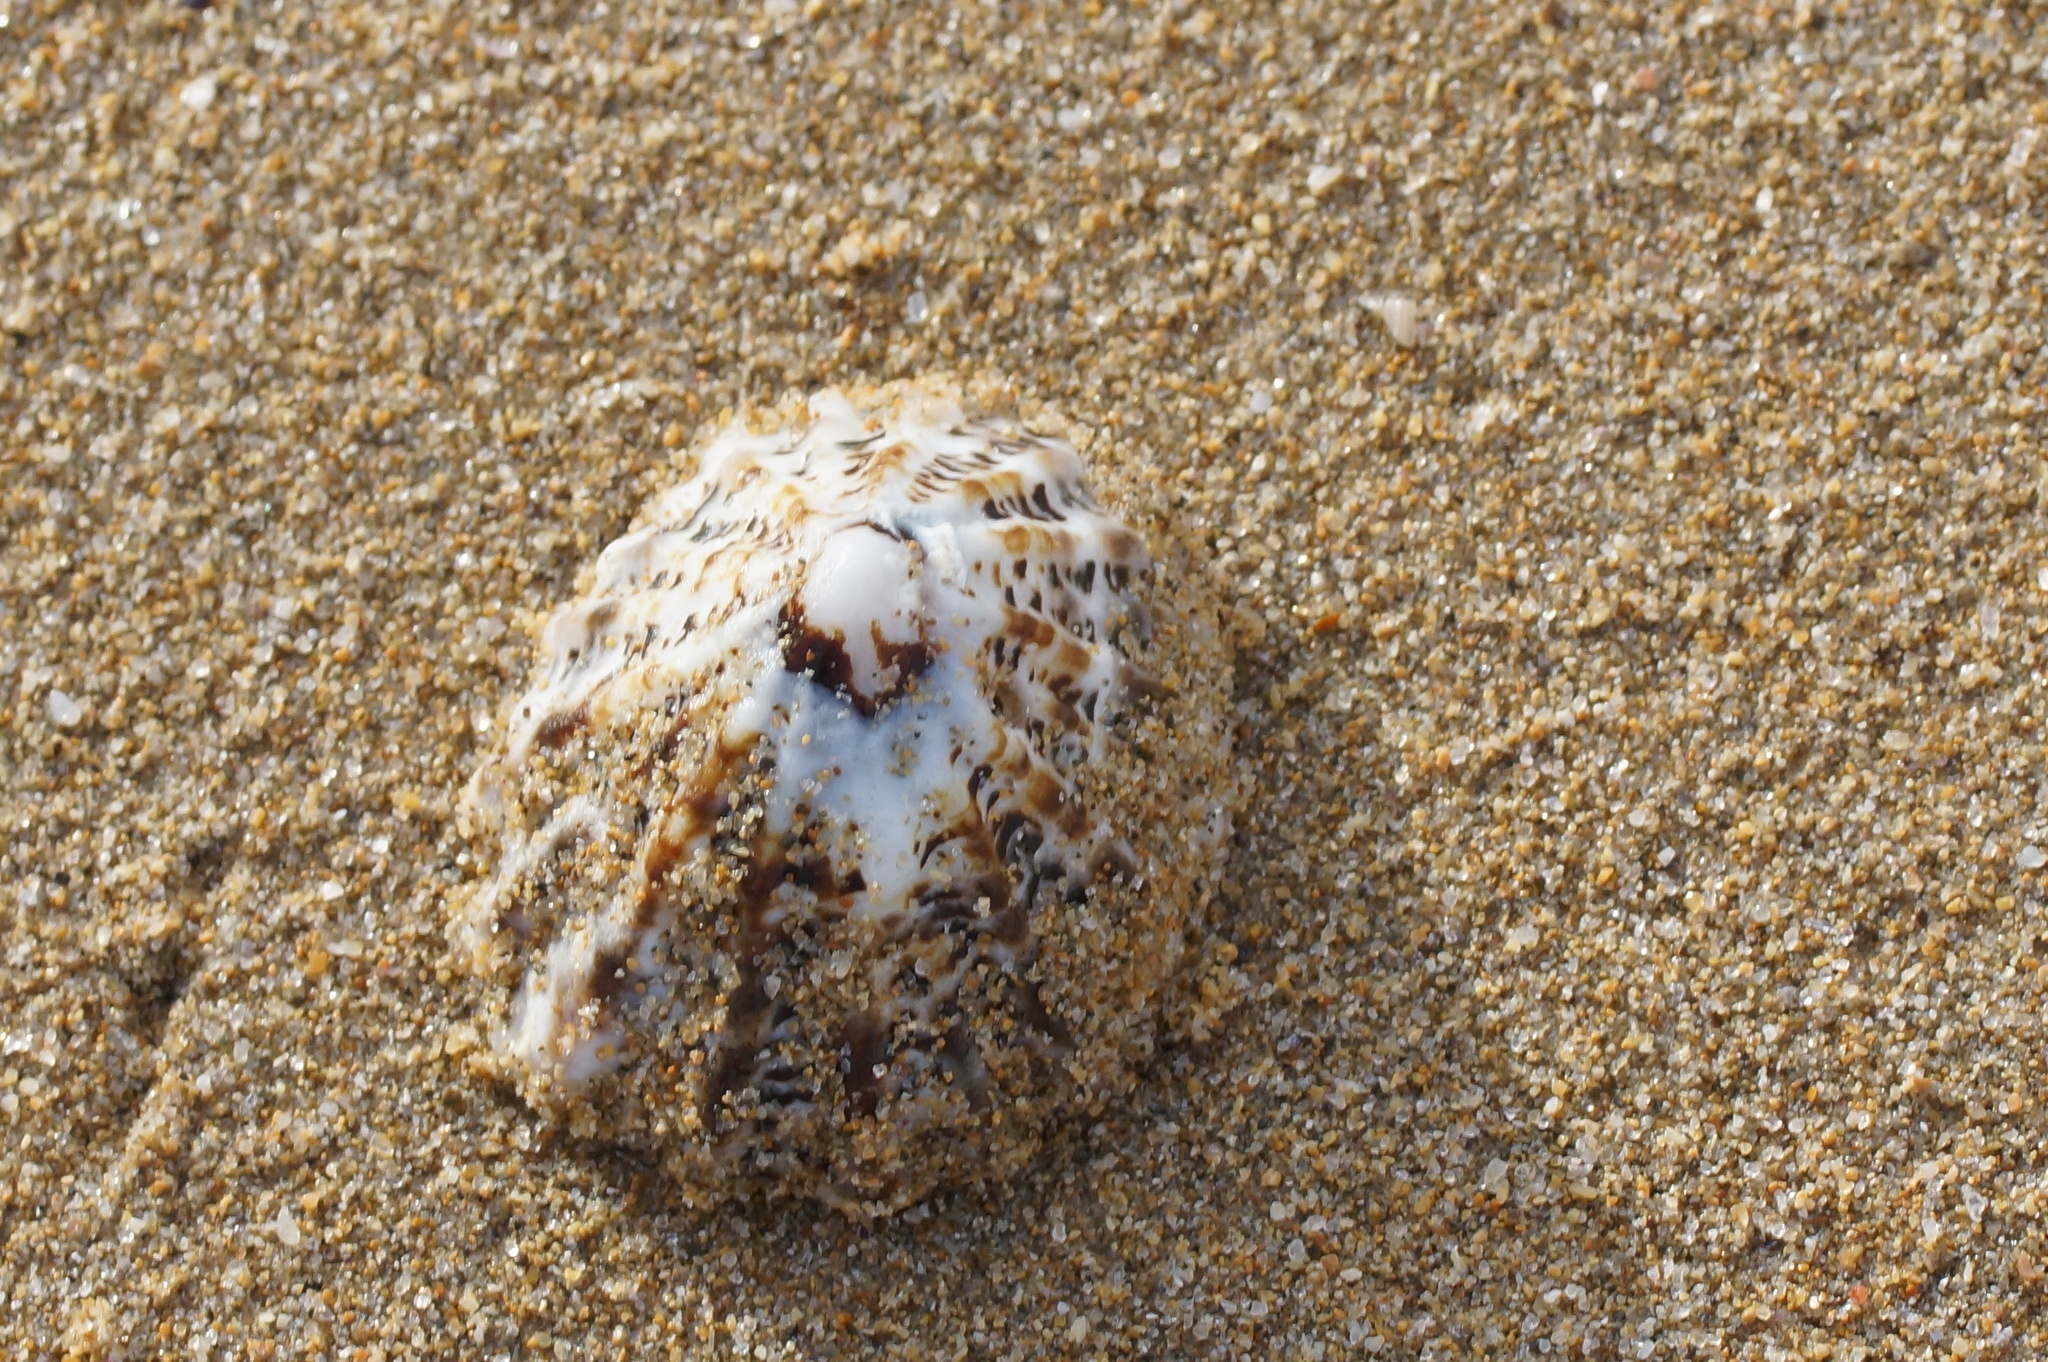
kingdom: Animalia
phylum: Mollusca
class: Gastropoda
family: Lottiidae
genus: Patelloida
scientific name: Patelloida alticostata
